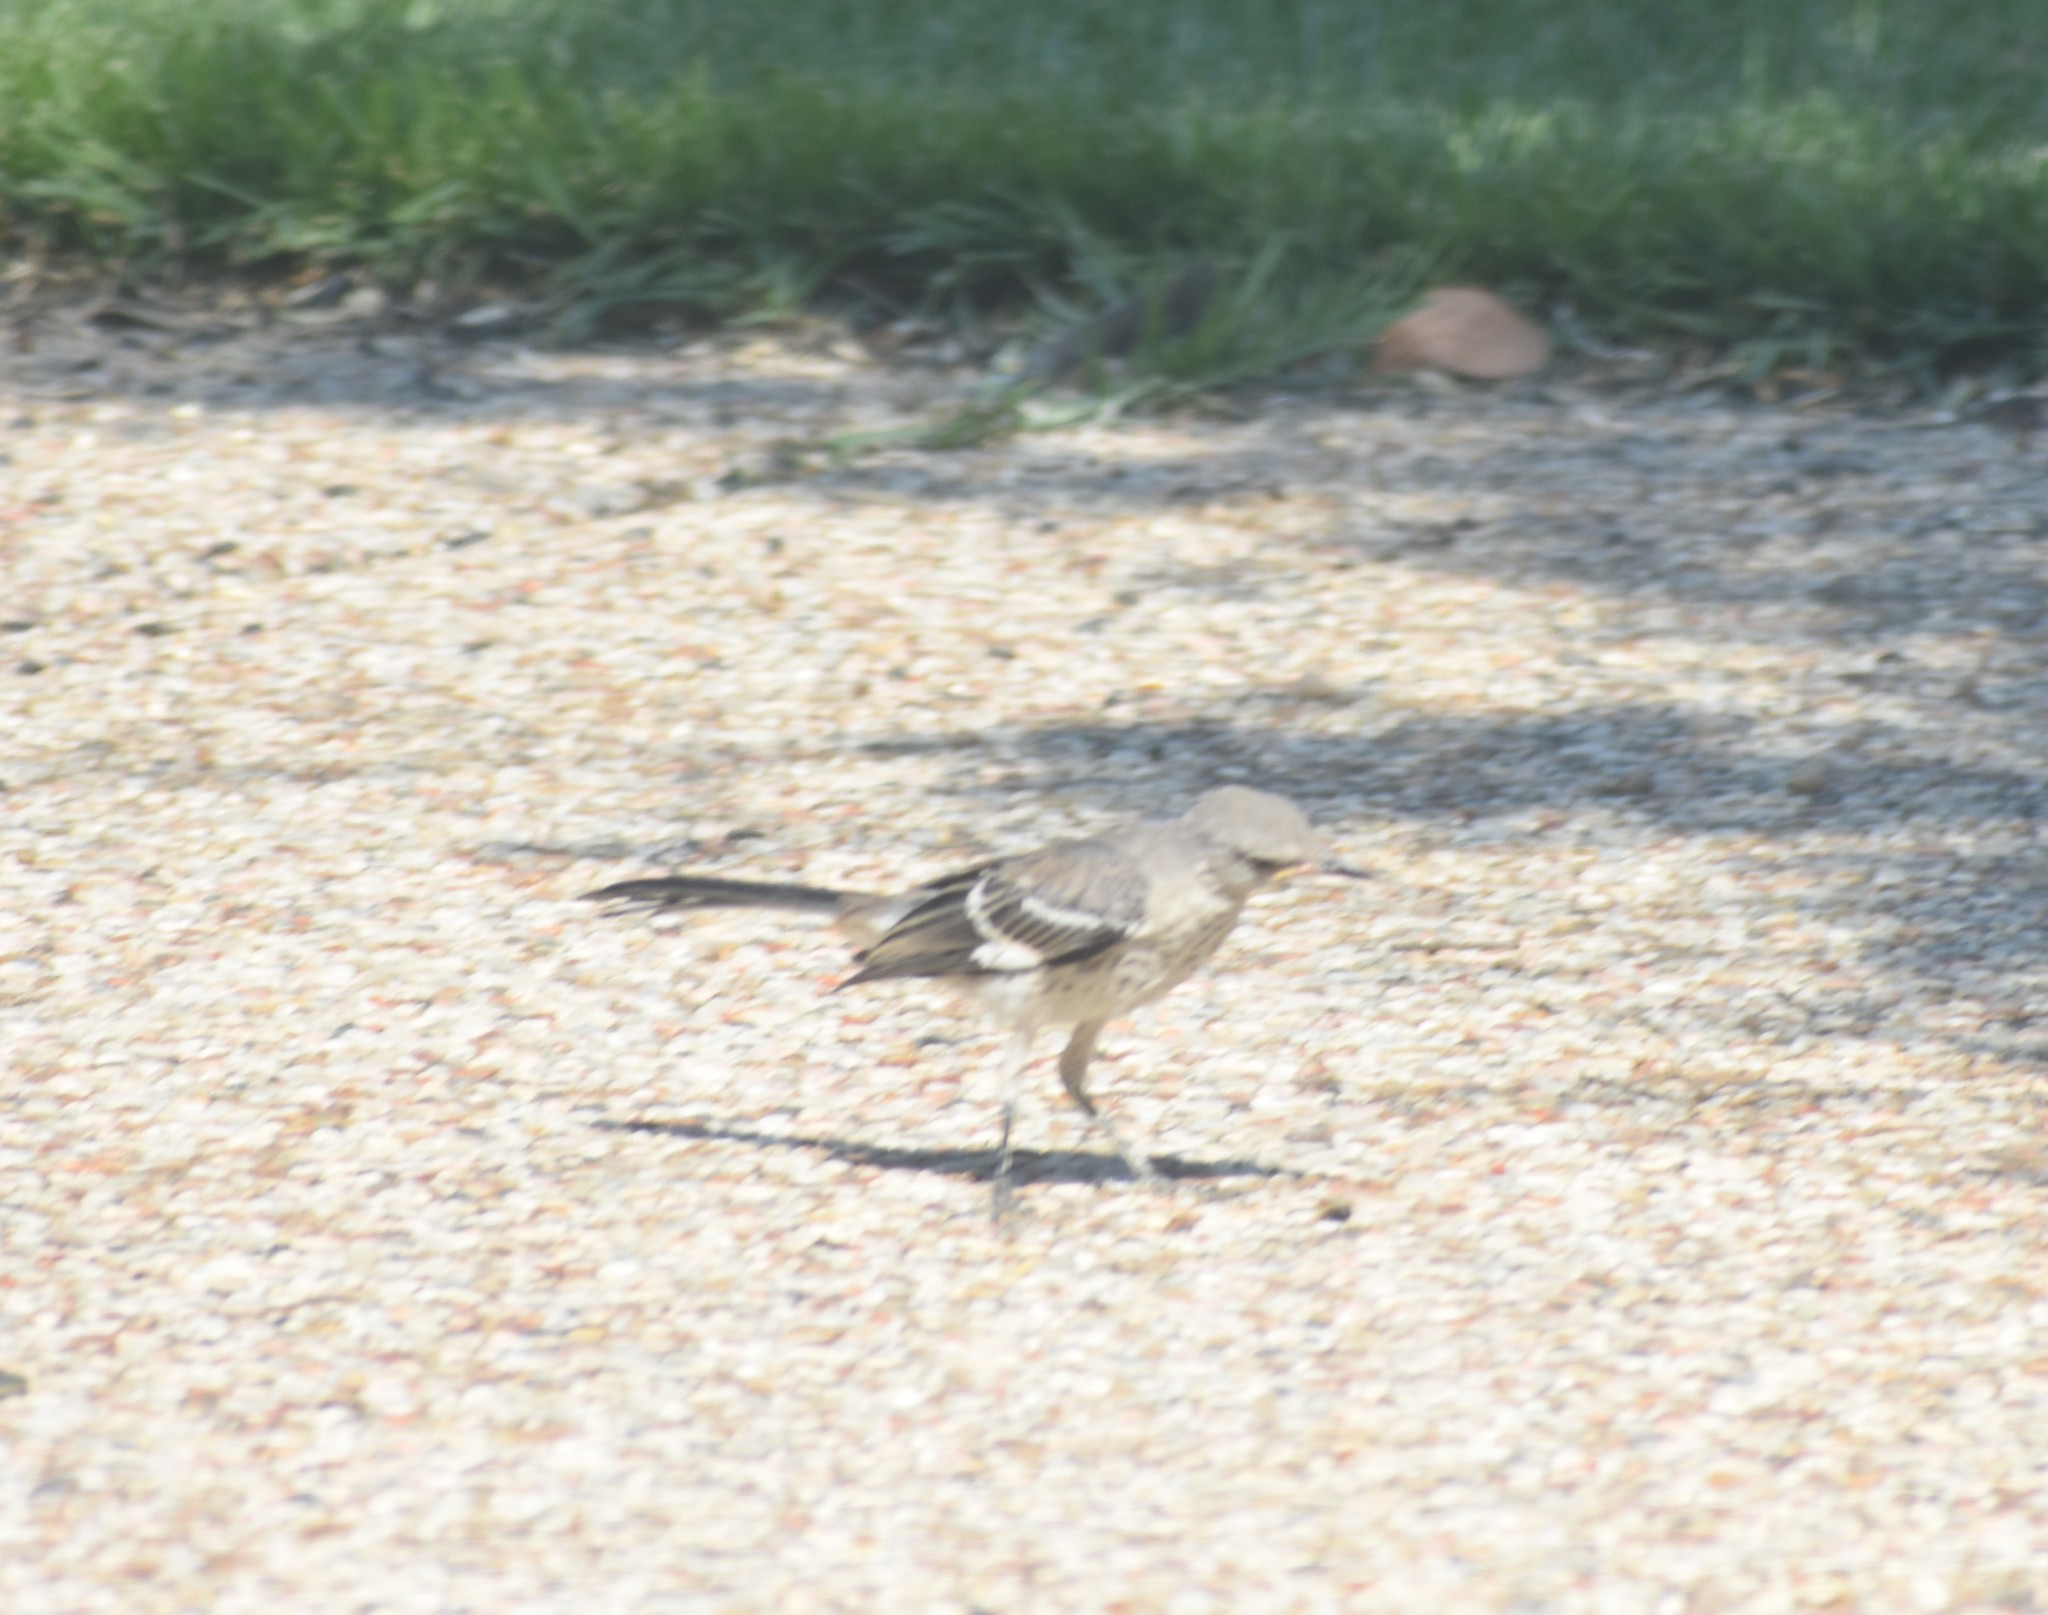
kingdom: Animalia
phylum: Chordata
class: Aves
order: Passeriformes
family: Mimidae
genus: Mimus
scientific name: Mimus polyglottos
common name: Northern mockingbird
